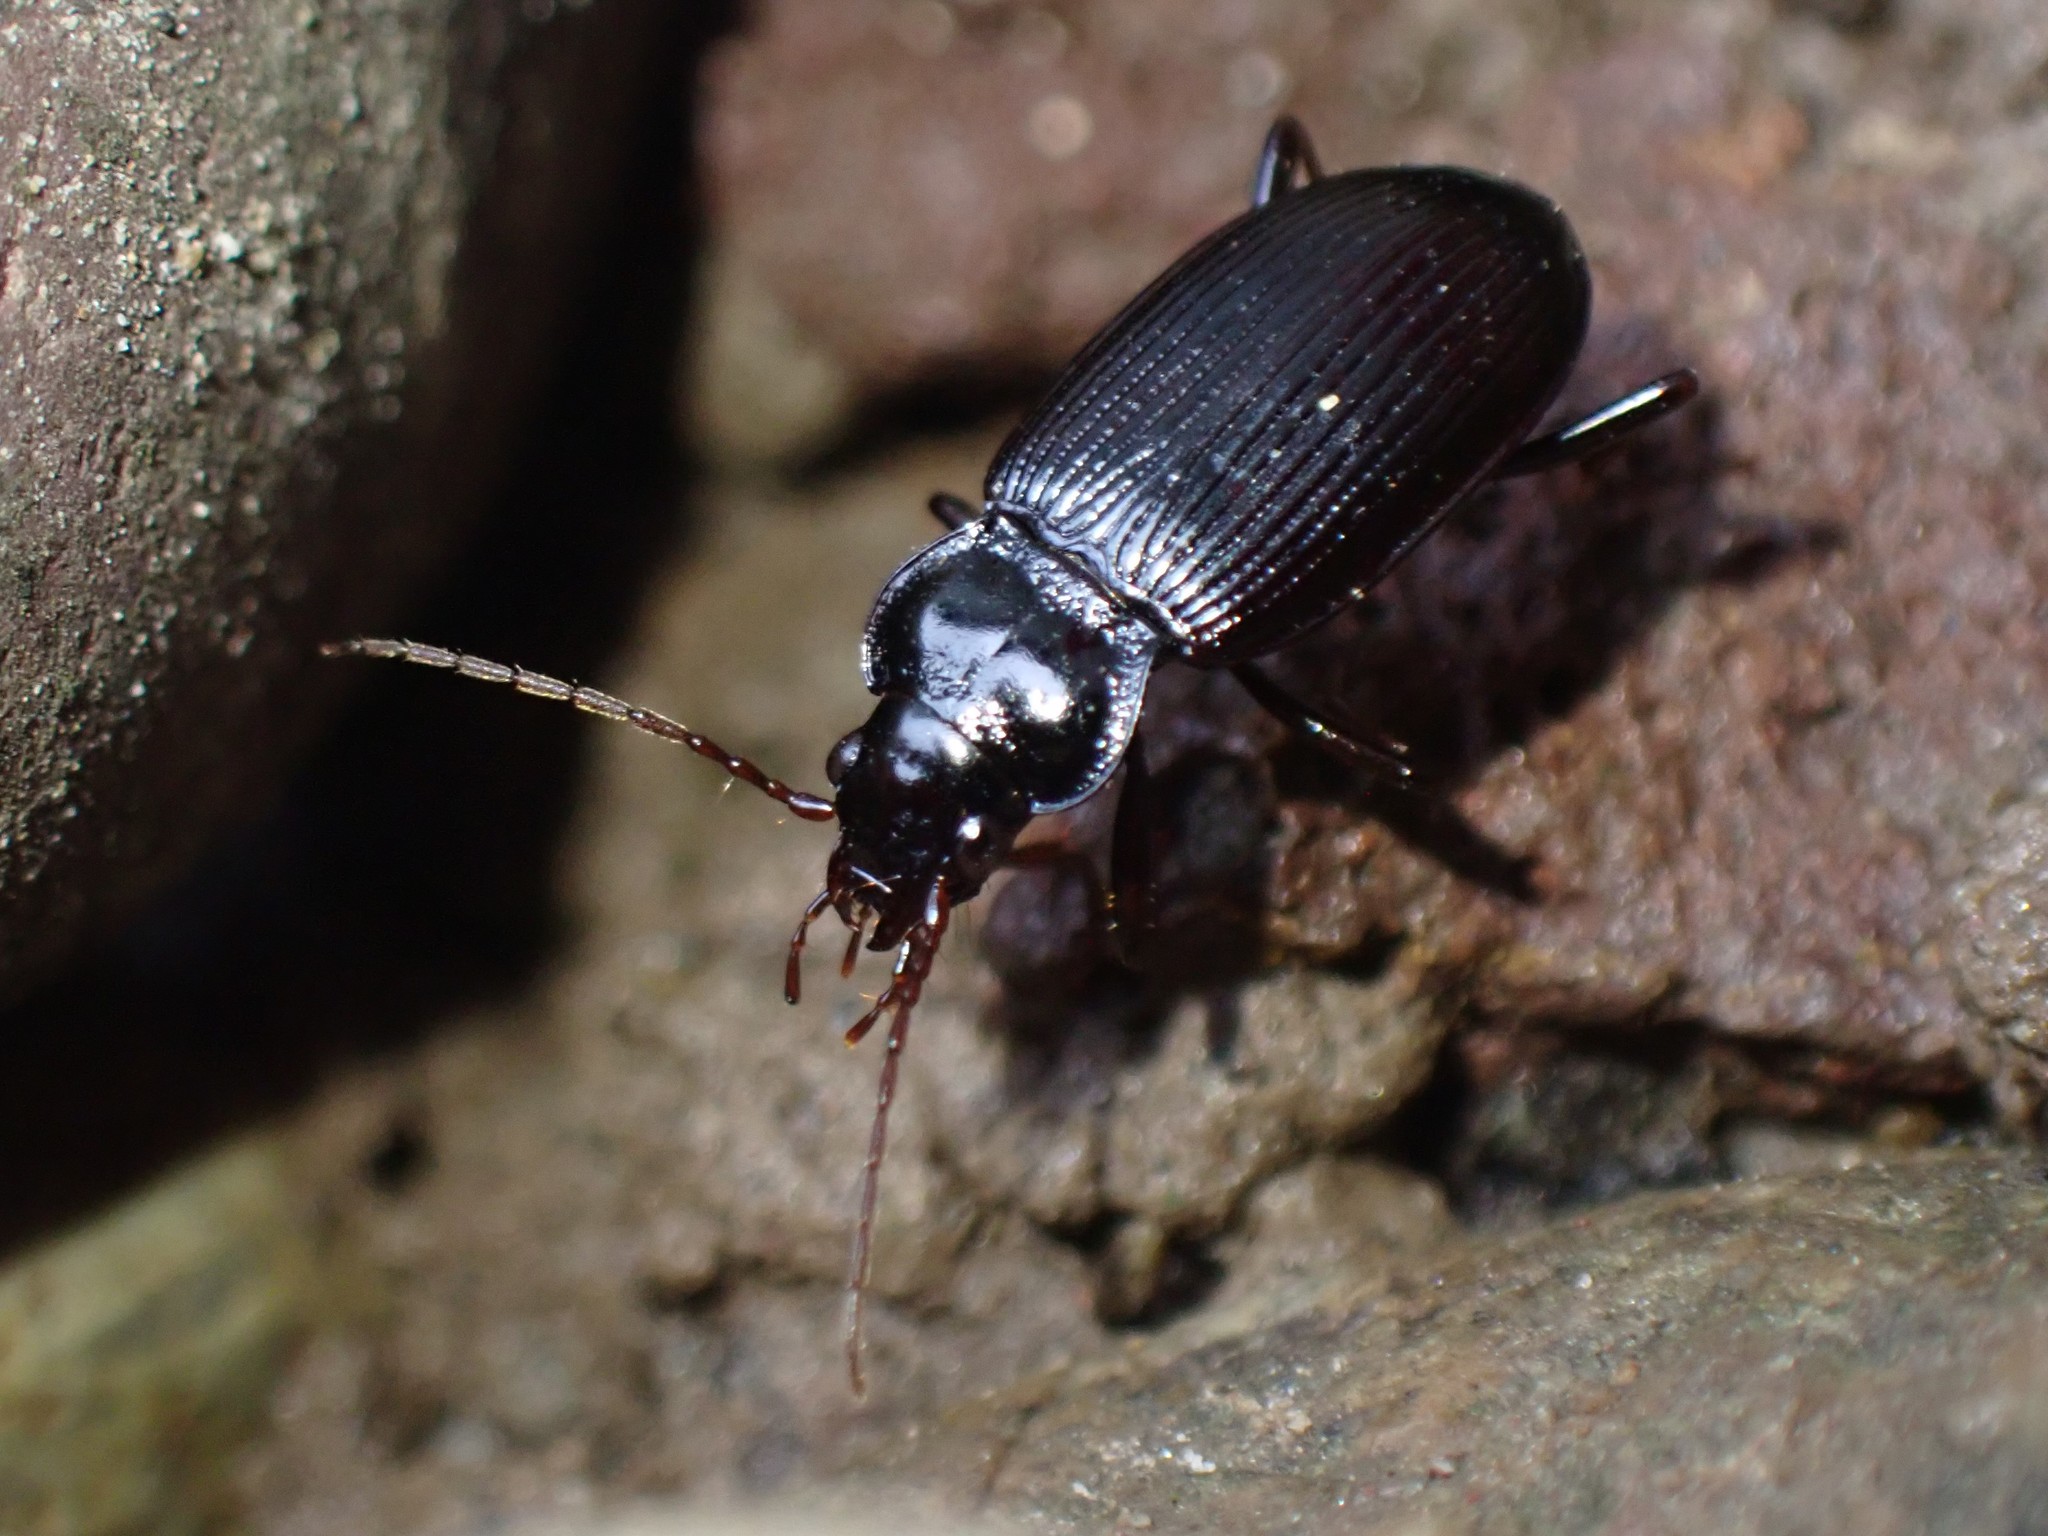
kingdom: Animalia
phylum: Arthropoda
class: Insecta
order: Coleoptera
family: Carabidae
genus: Nebria
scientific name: Nebria brevicollis
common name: Short-necked gazelle beetle
